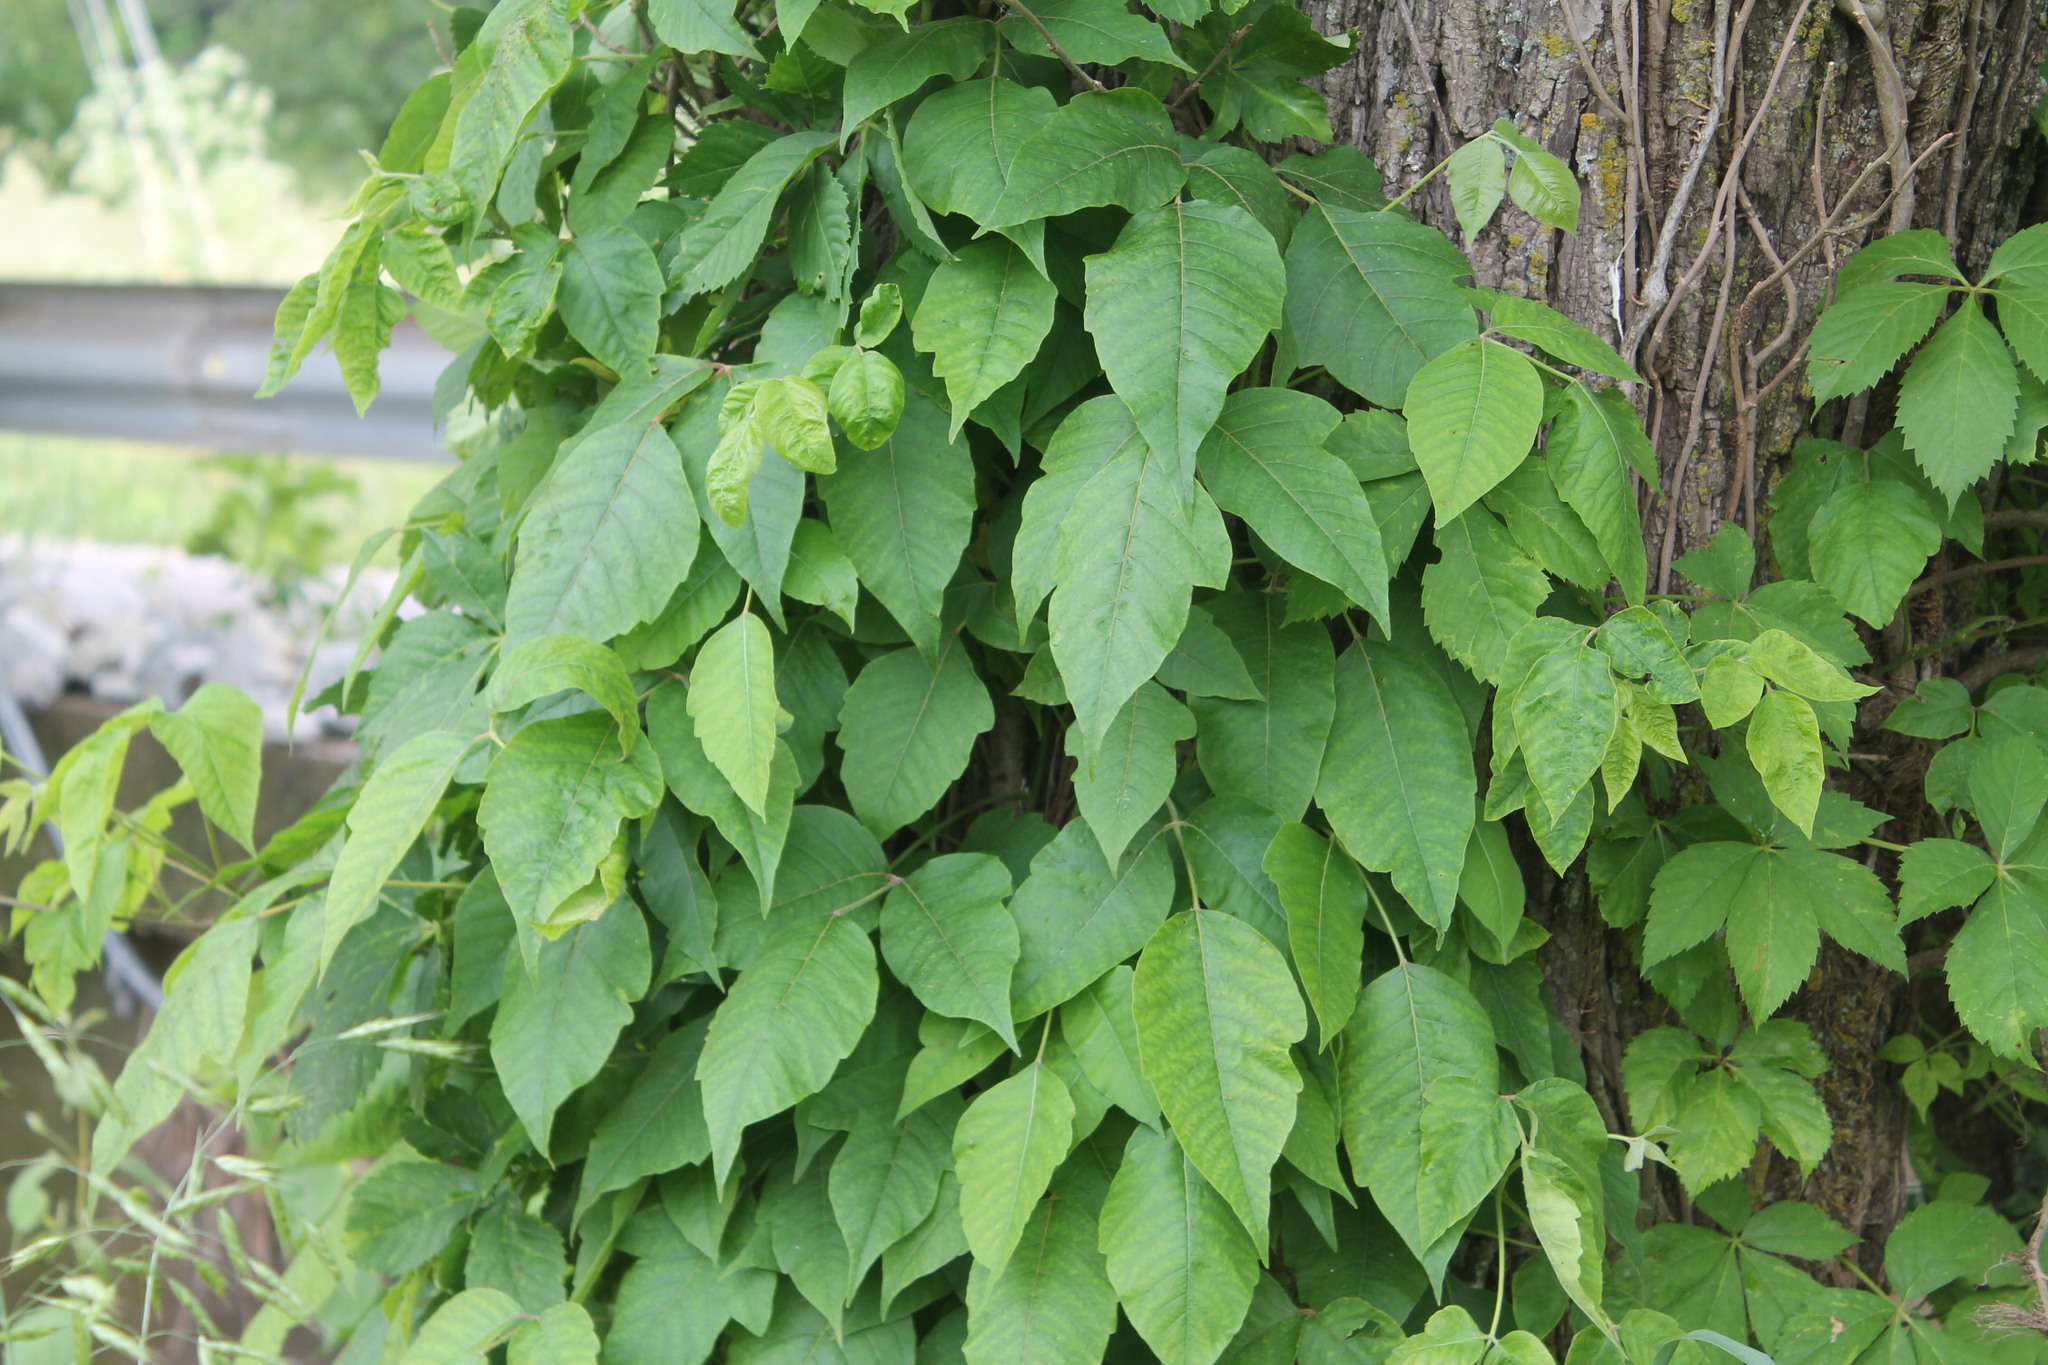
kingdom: Plantae
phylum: Tracheophyta
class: Magnoliopsida
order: Sapindales
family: Anacardiaceae
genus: Toxicodendron
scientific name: Toxicodendron radicans
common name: Poison ivy
